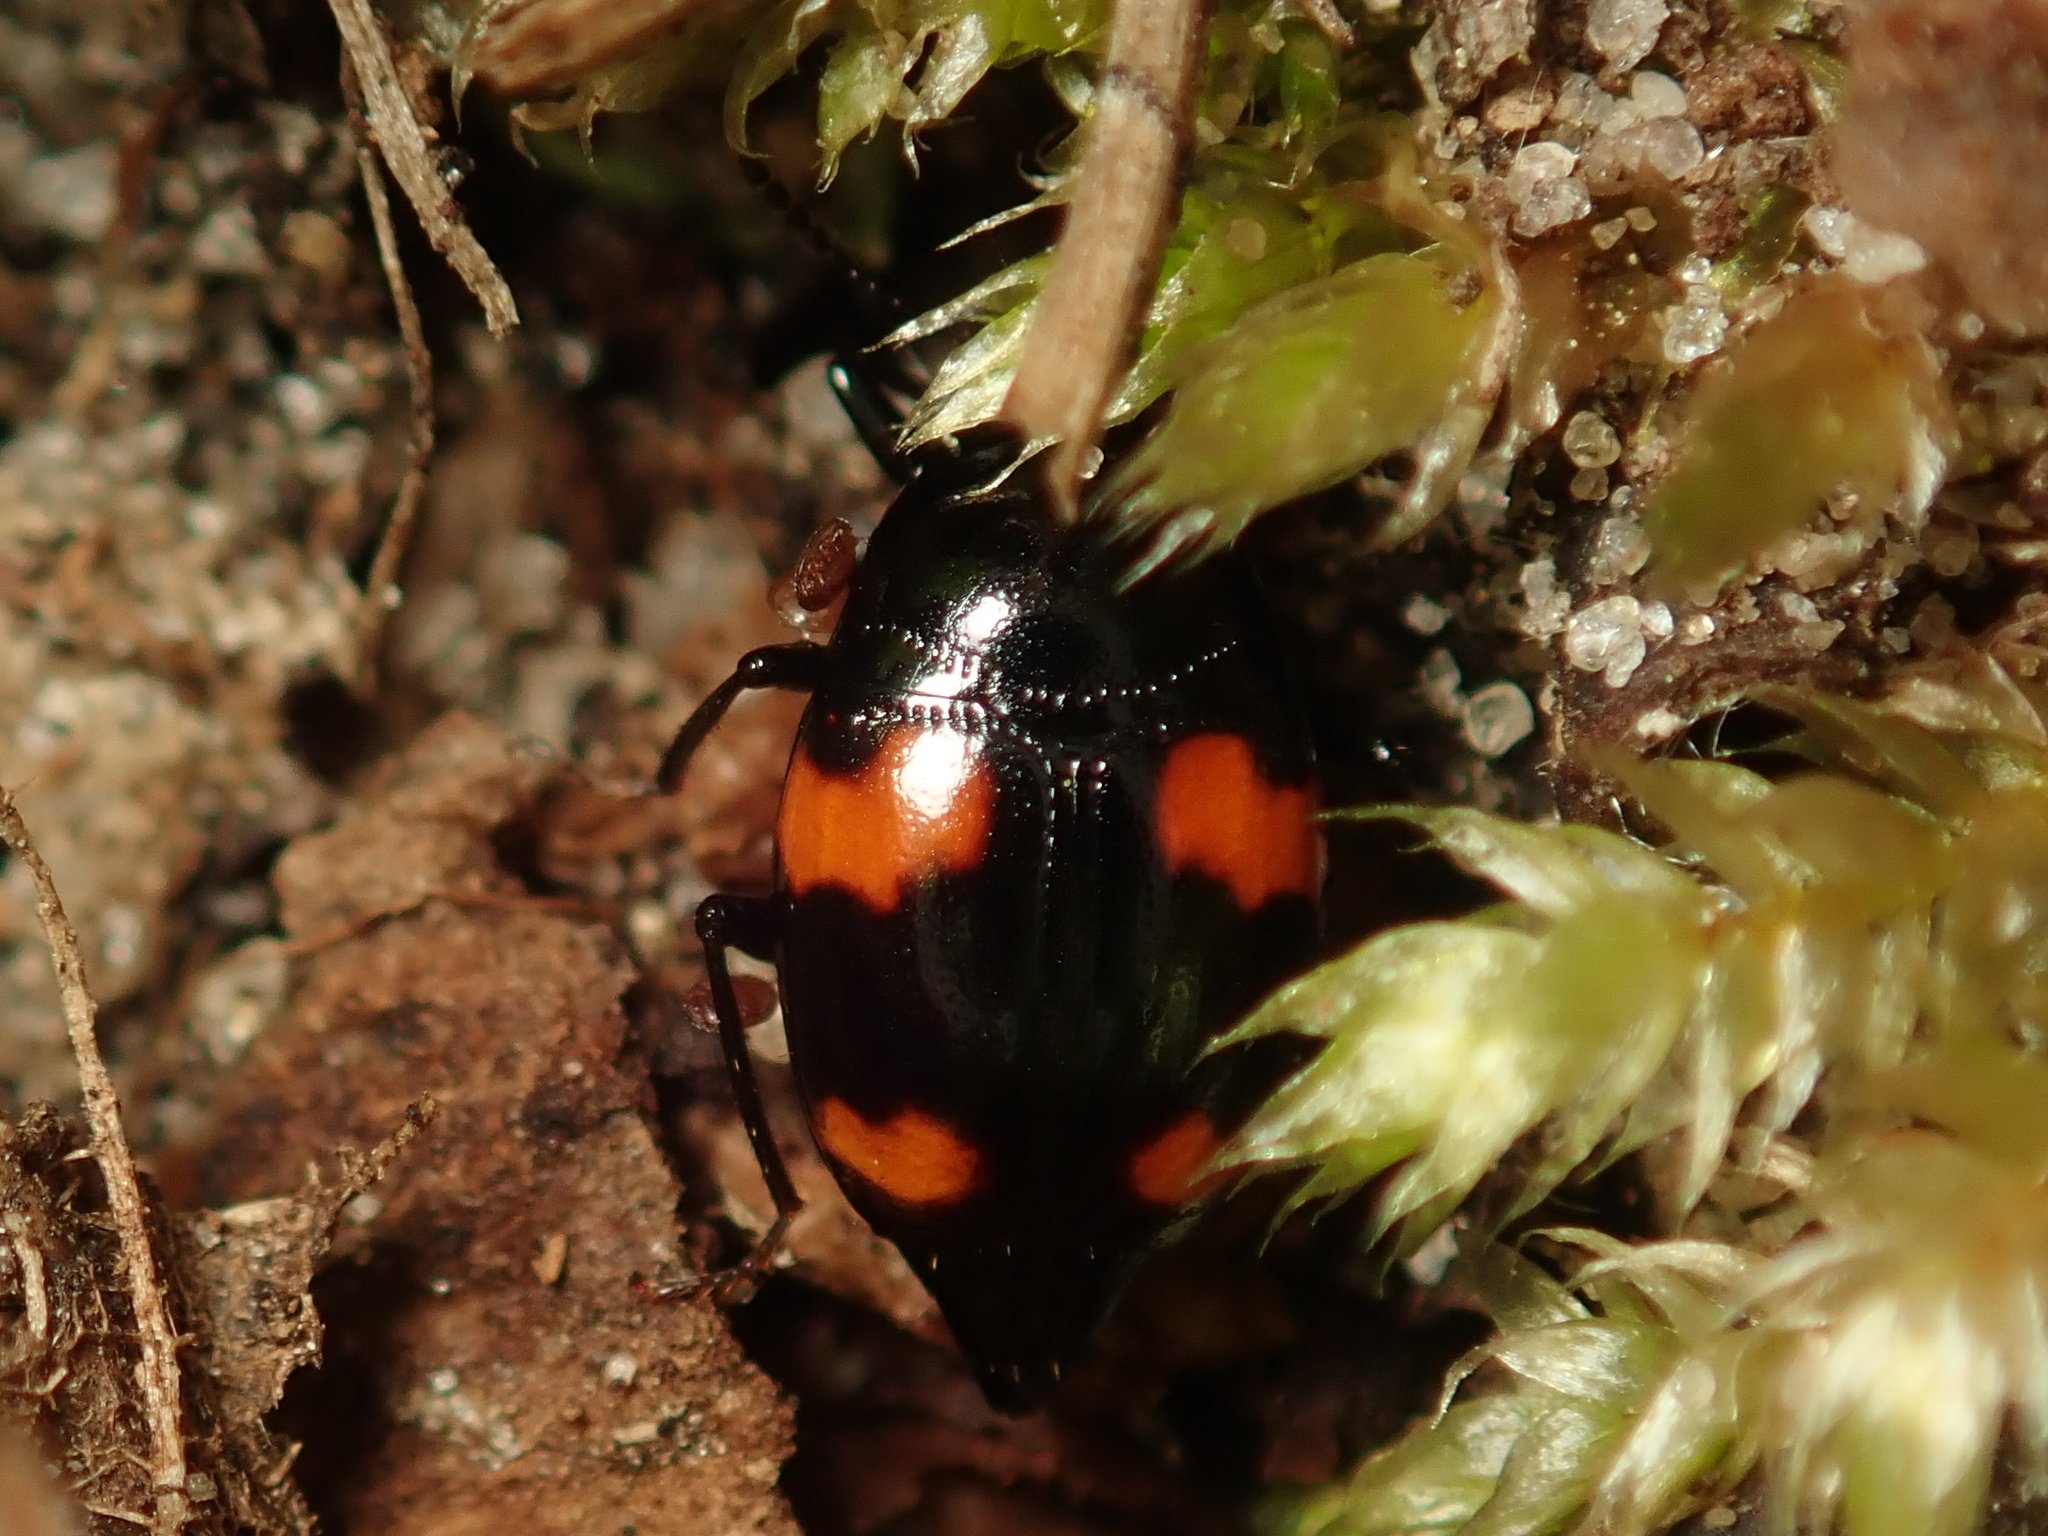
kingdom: Animalia
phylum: Arthropoda
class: Insecta
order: Coleoptera
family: Staphylinidae
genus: Scaphidium
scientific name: Scaphidium quadrimaculatum
